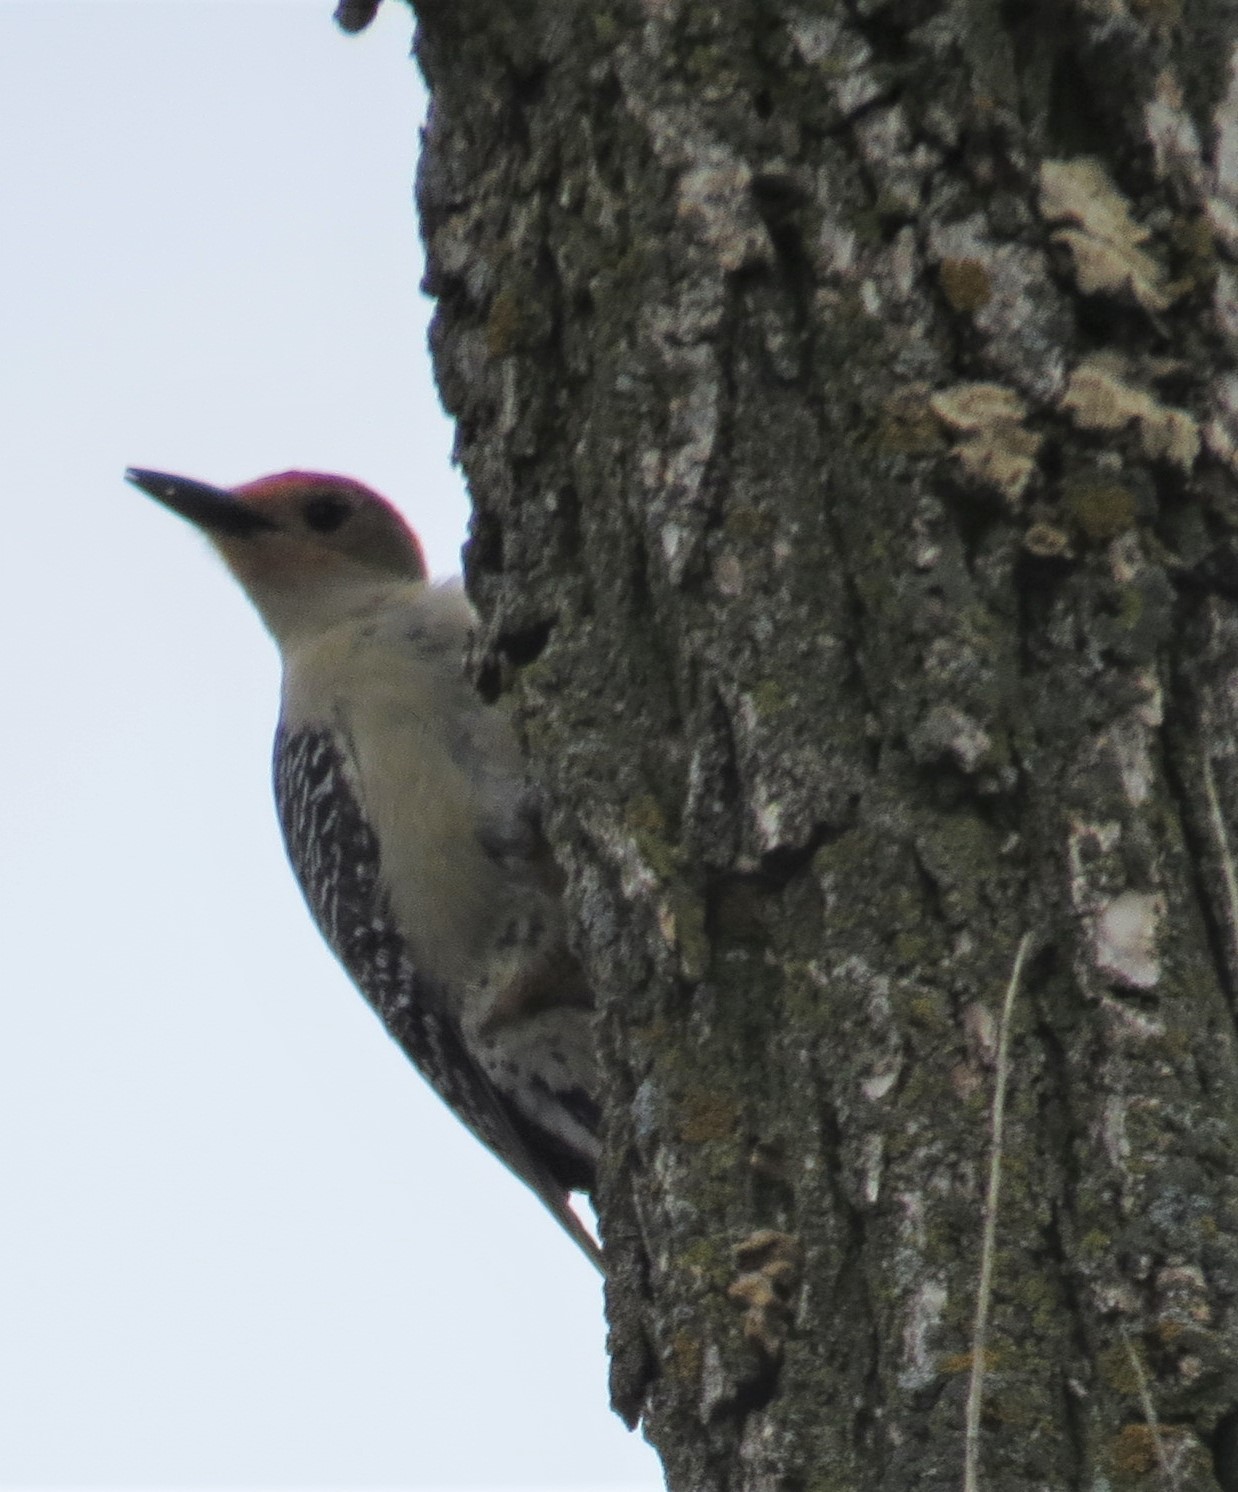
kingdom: Animalia
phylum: Chordata
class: Aves
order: Piciformes
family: Picidae
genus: Melanerpes
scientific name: Melanerpes carolinus
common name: Red-bellied woodpecker
